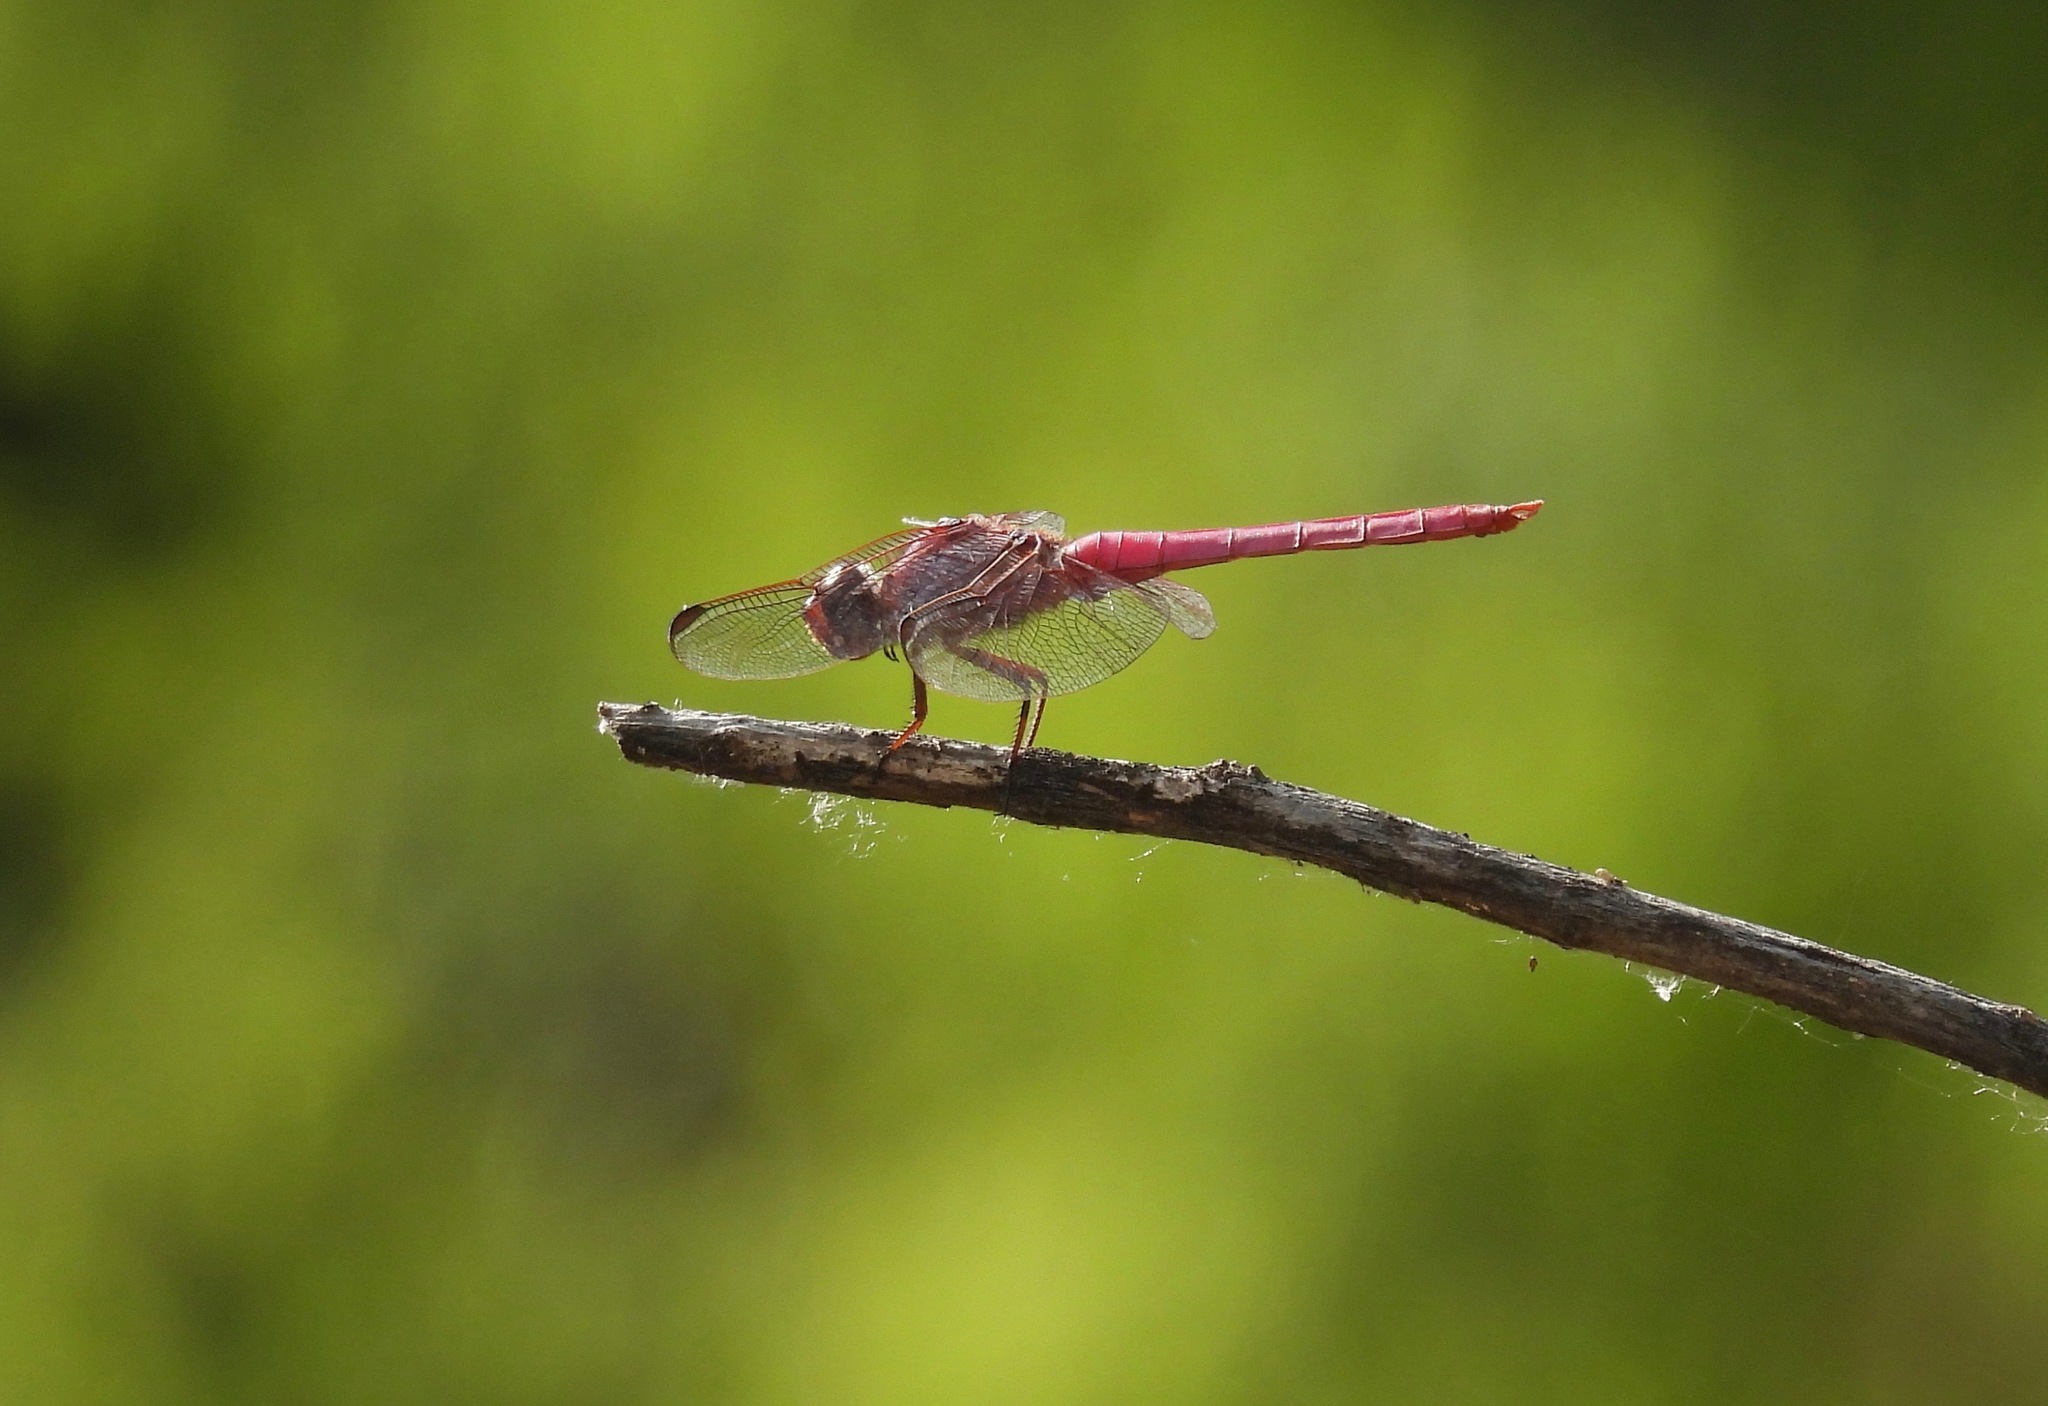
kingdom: Animalia
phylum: Arthropoda
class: Insecta
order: Odonata
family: Libellulidae
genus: Orthemis
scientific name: Orthemis ferruginea
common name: Roseate skimmer
